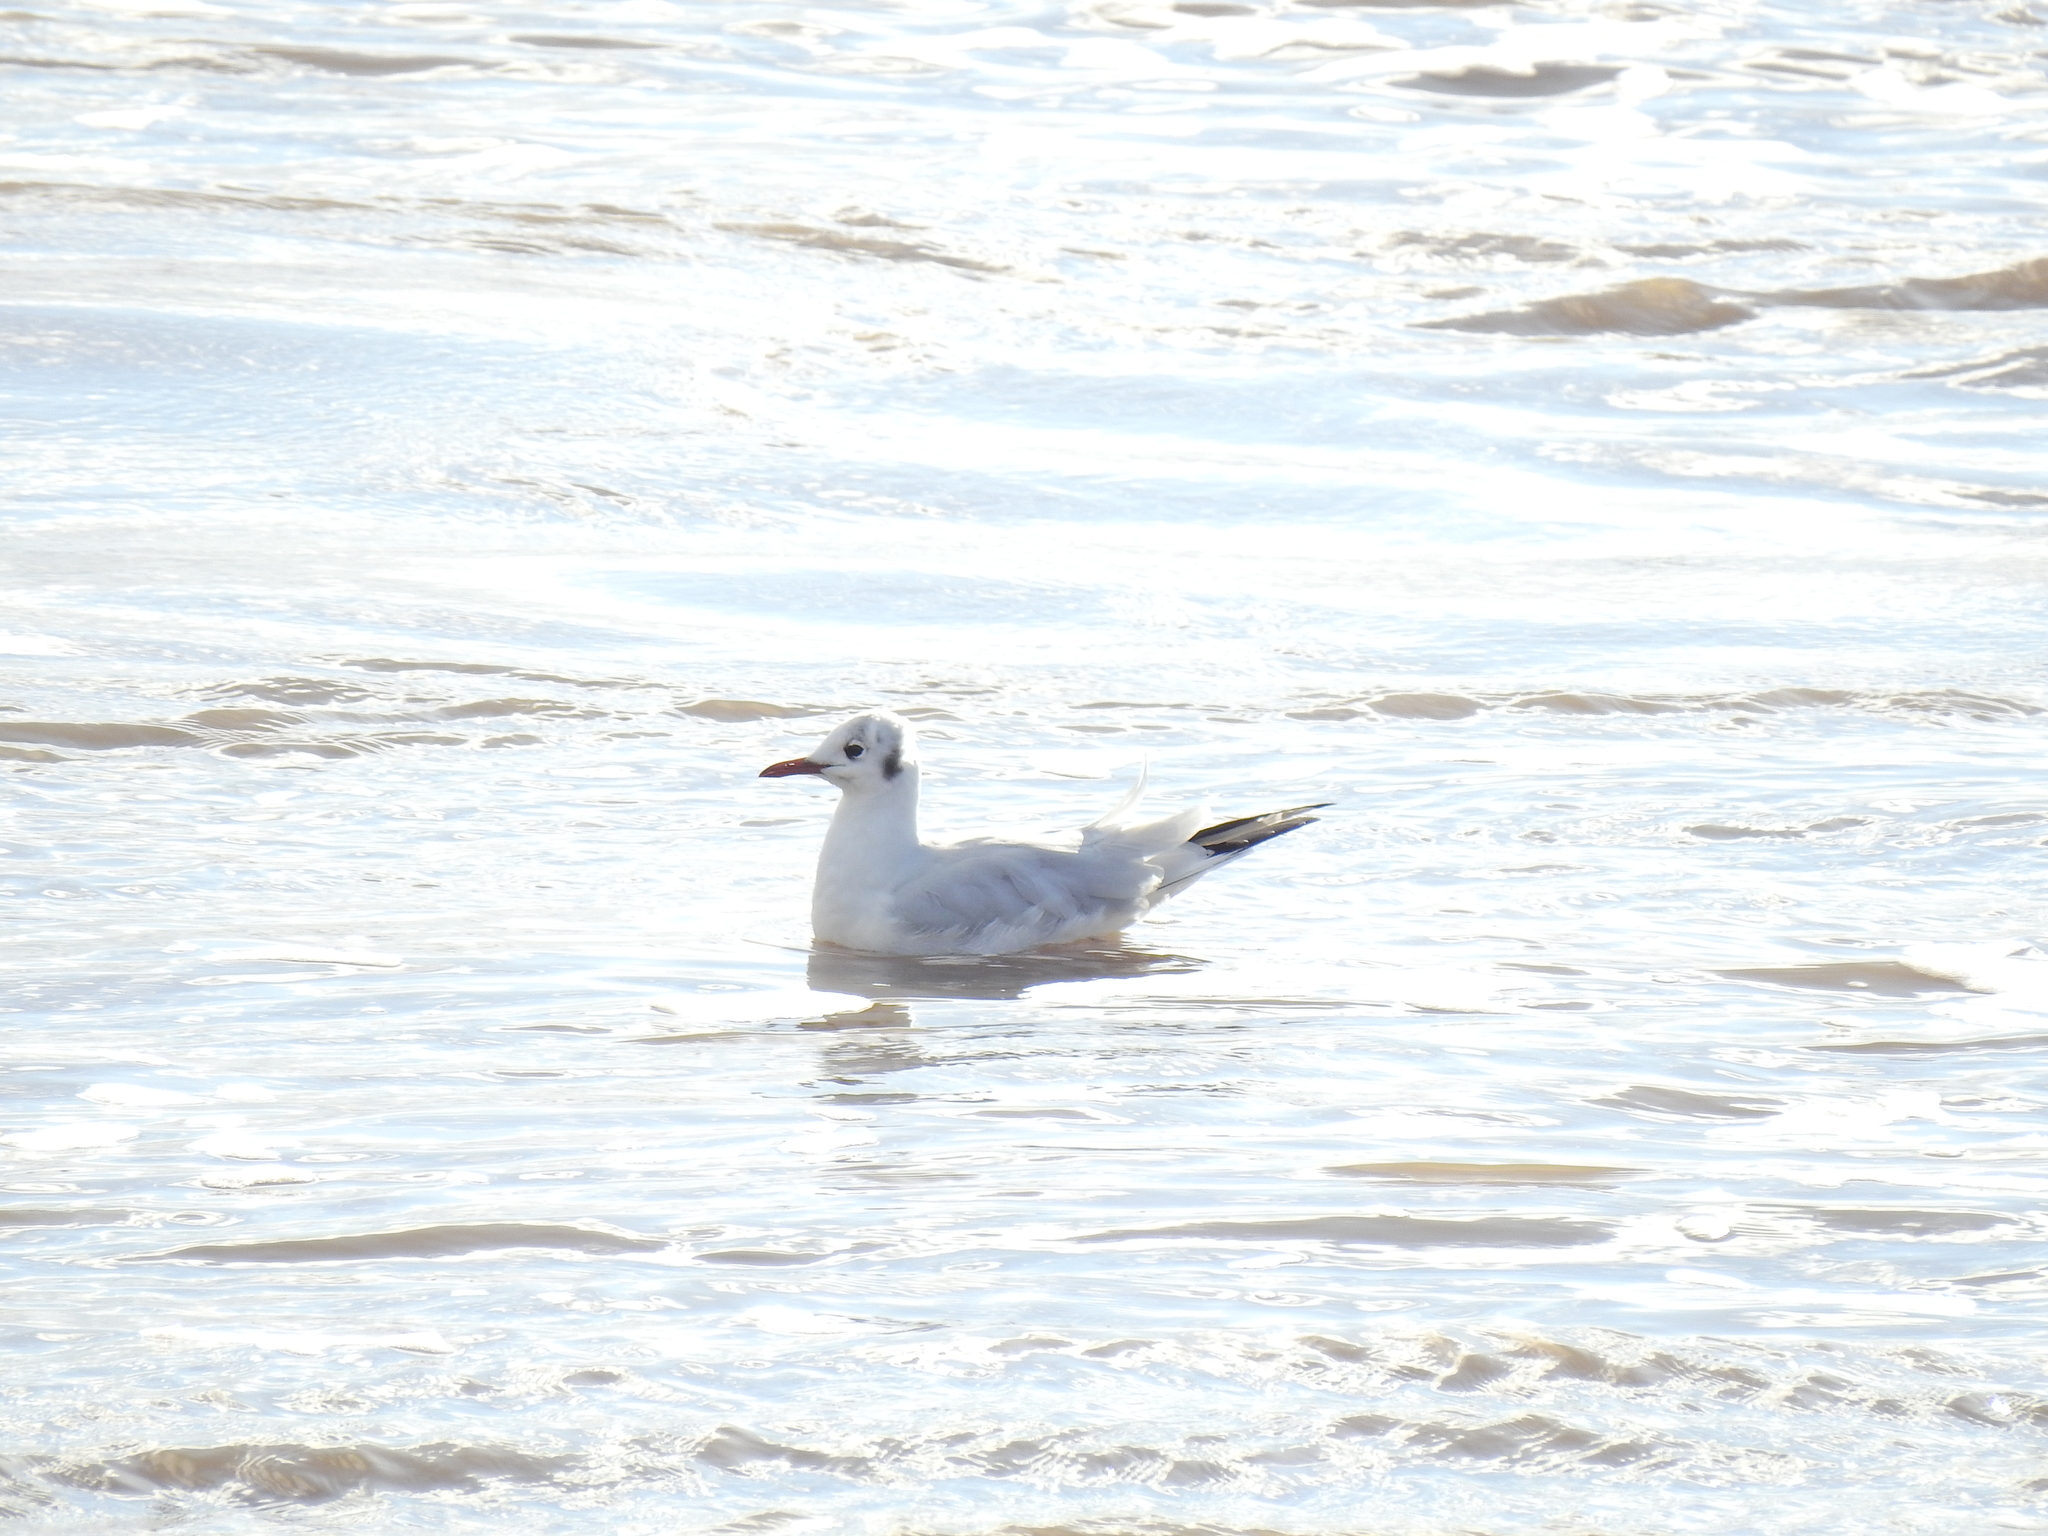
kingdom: Animalia
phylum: Chordata
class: Aves
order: Charadriiformes
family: Laridae
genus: Chroicocephalus
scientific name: Chroicocephalus ridibundus
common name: Black-headed gull
